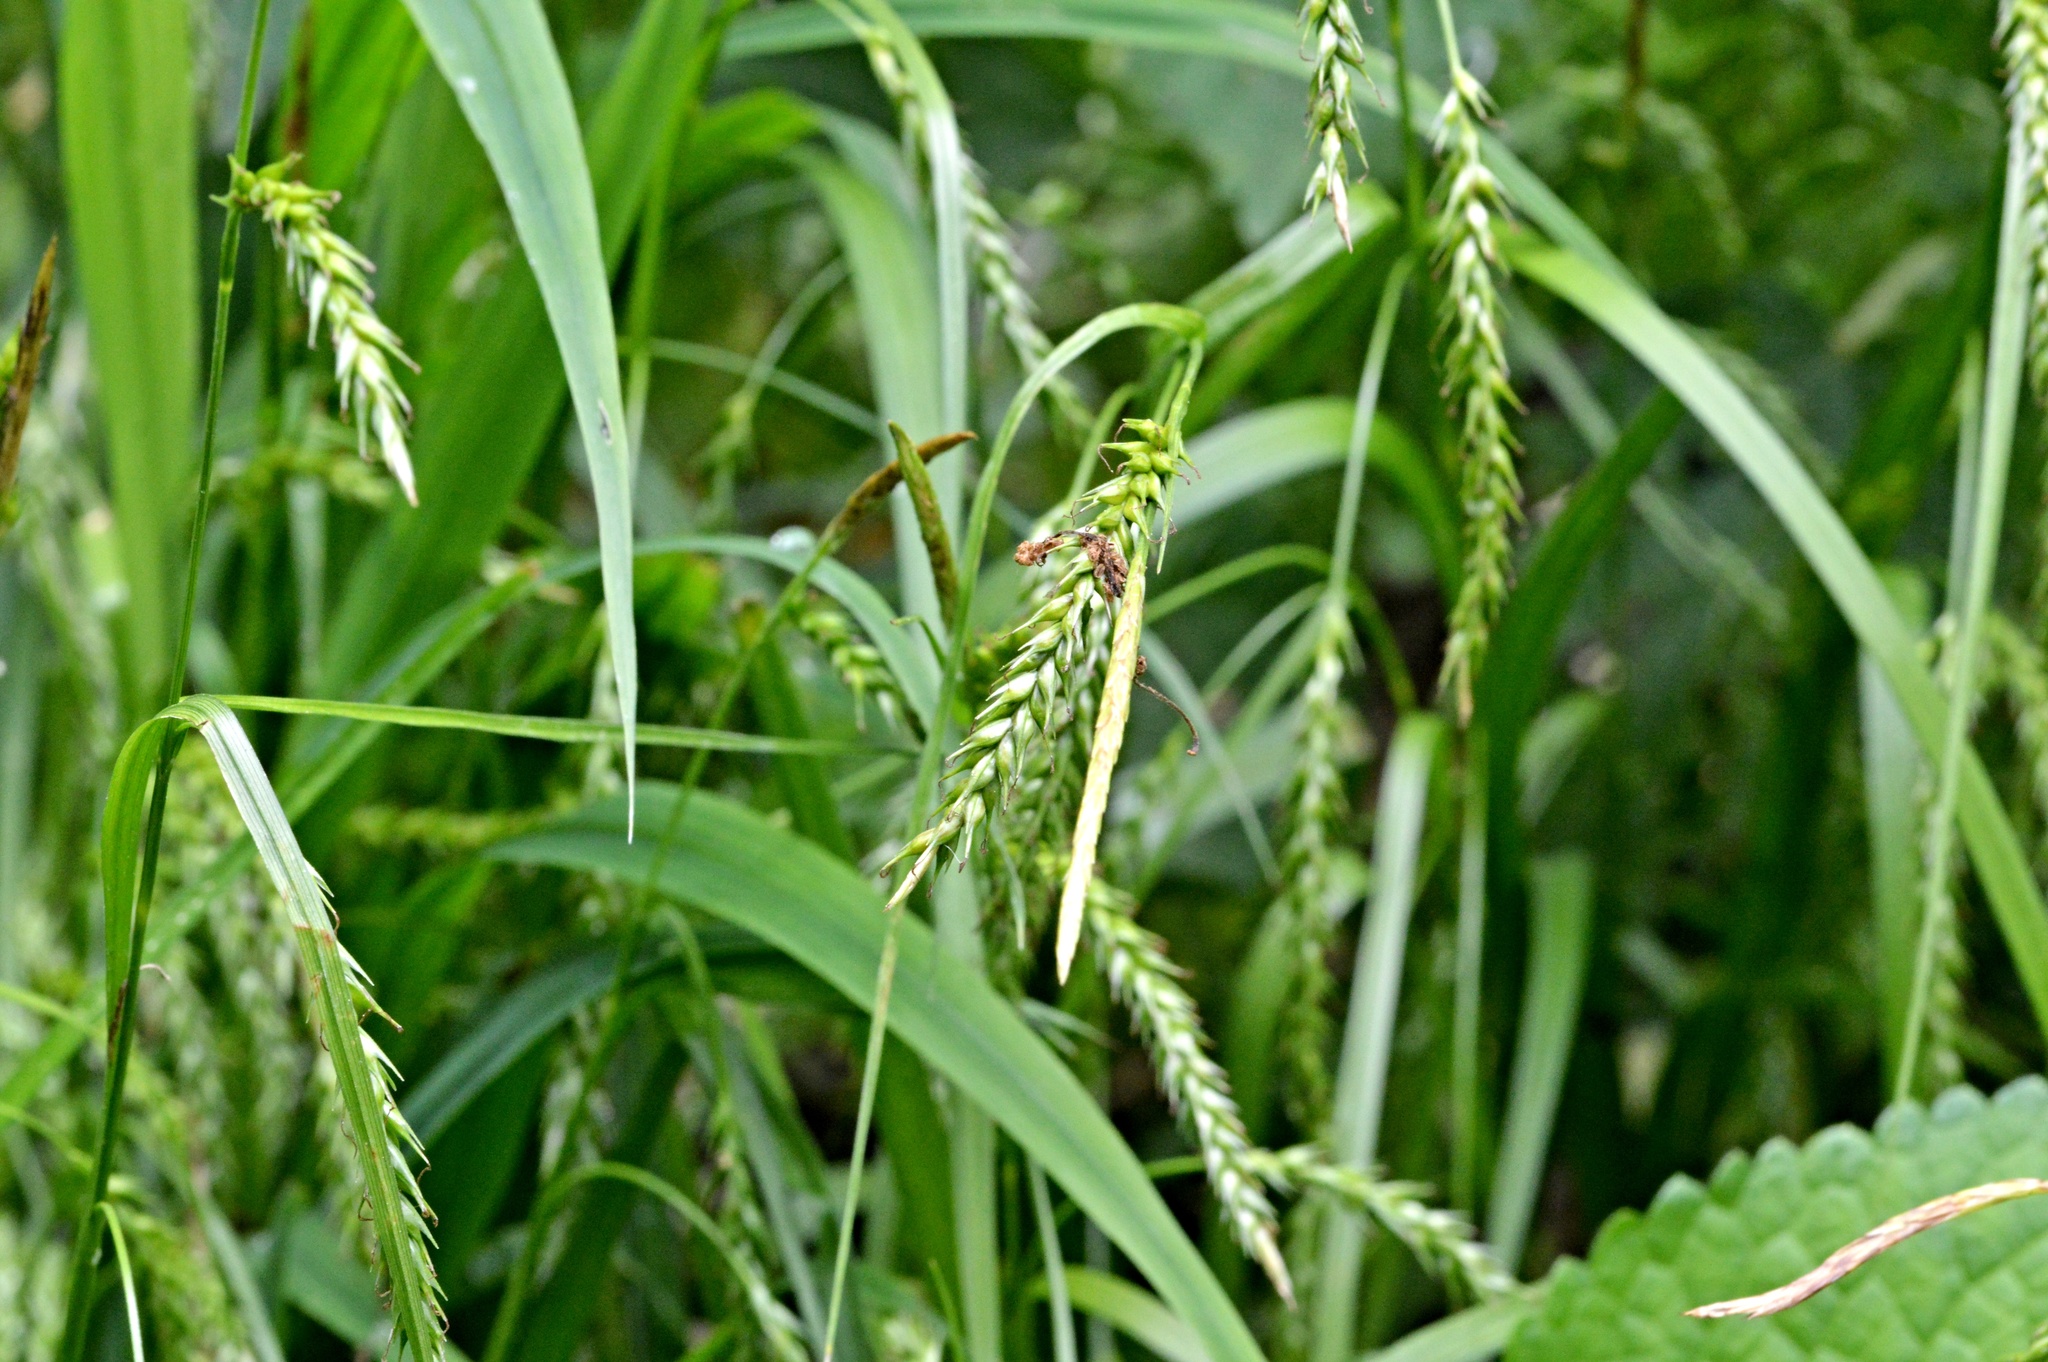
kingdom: Plantae
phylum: Tracheophyta
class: Liliopsida
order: Poales
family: Cyperaceae
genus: Carex
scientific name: Carex sylvatica
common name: Wood-sedge
